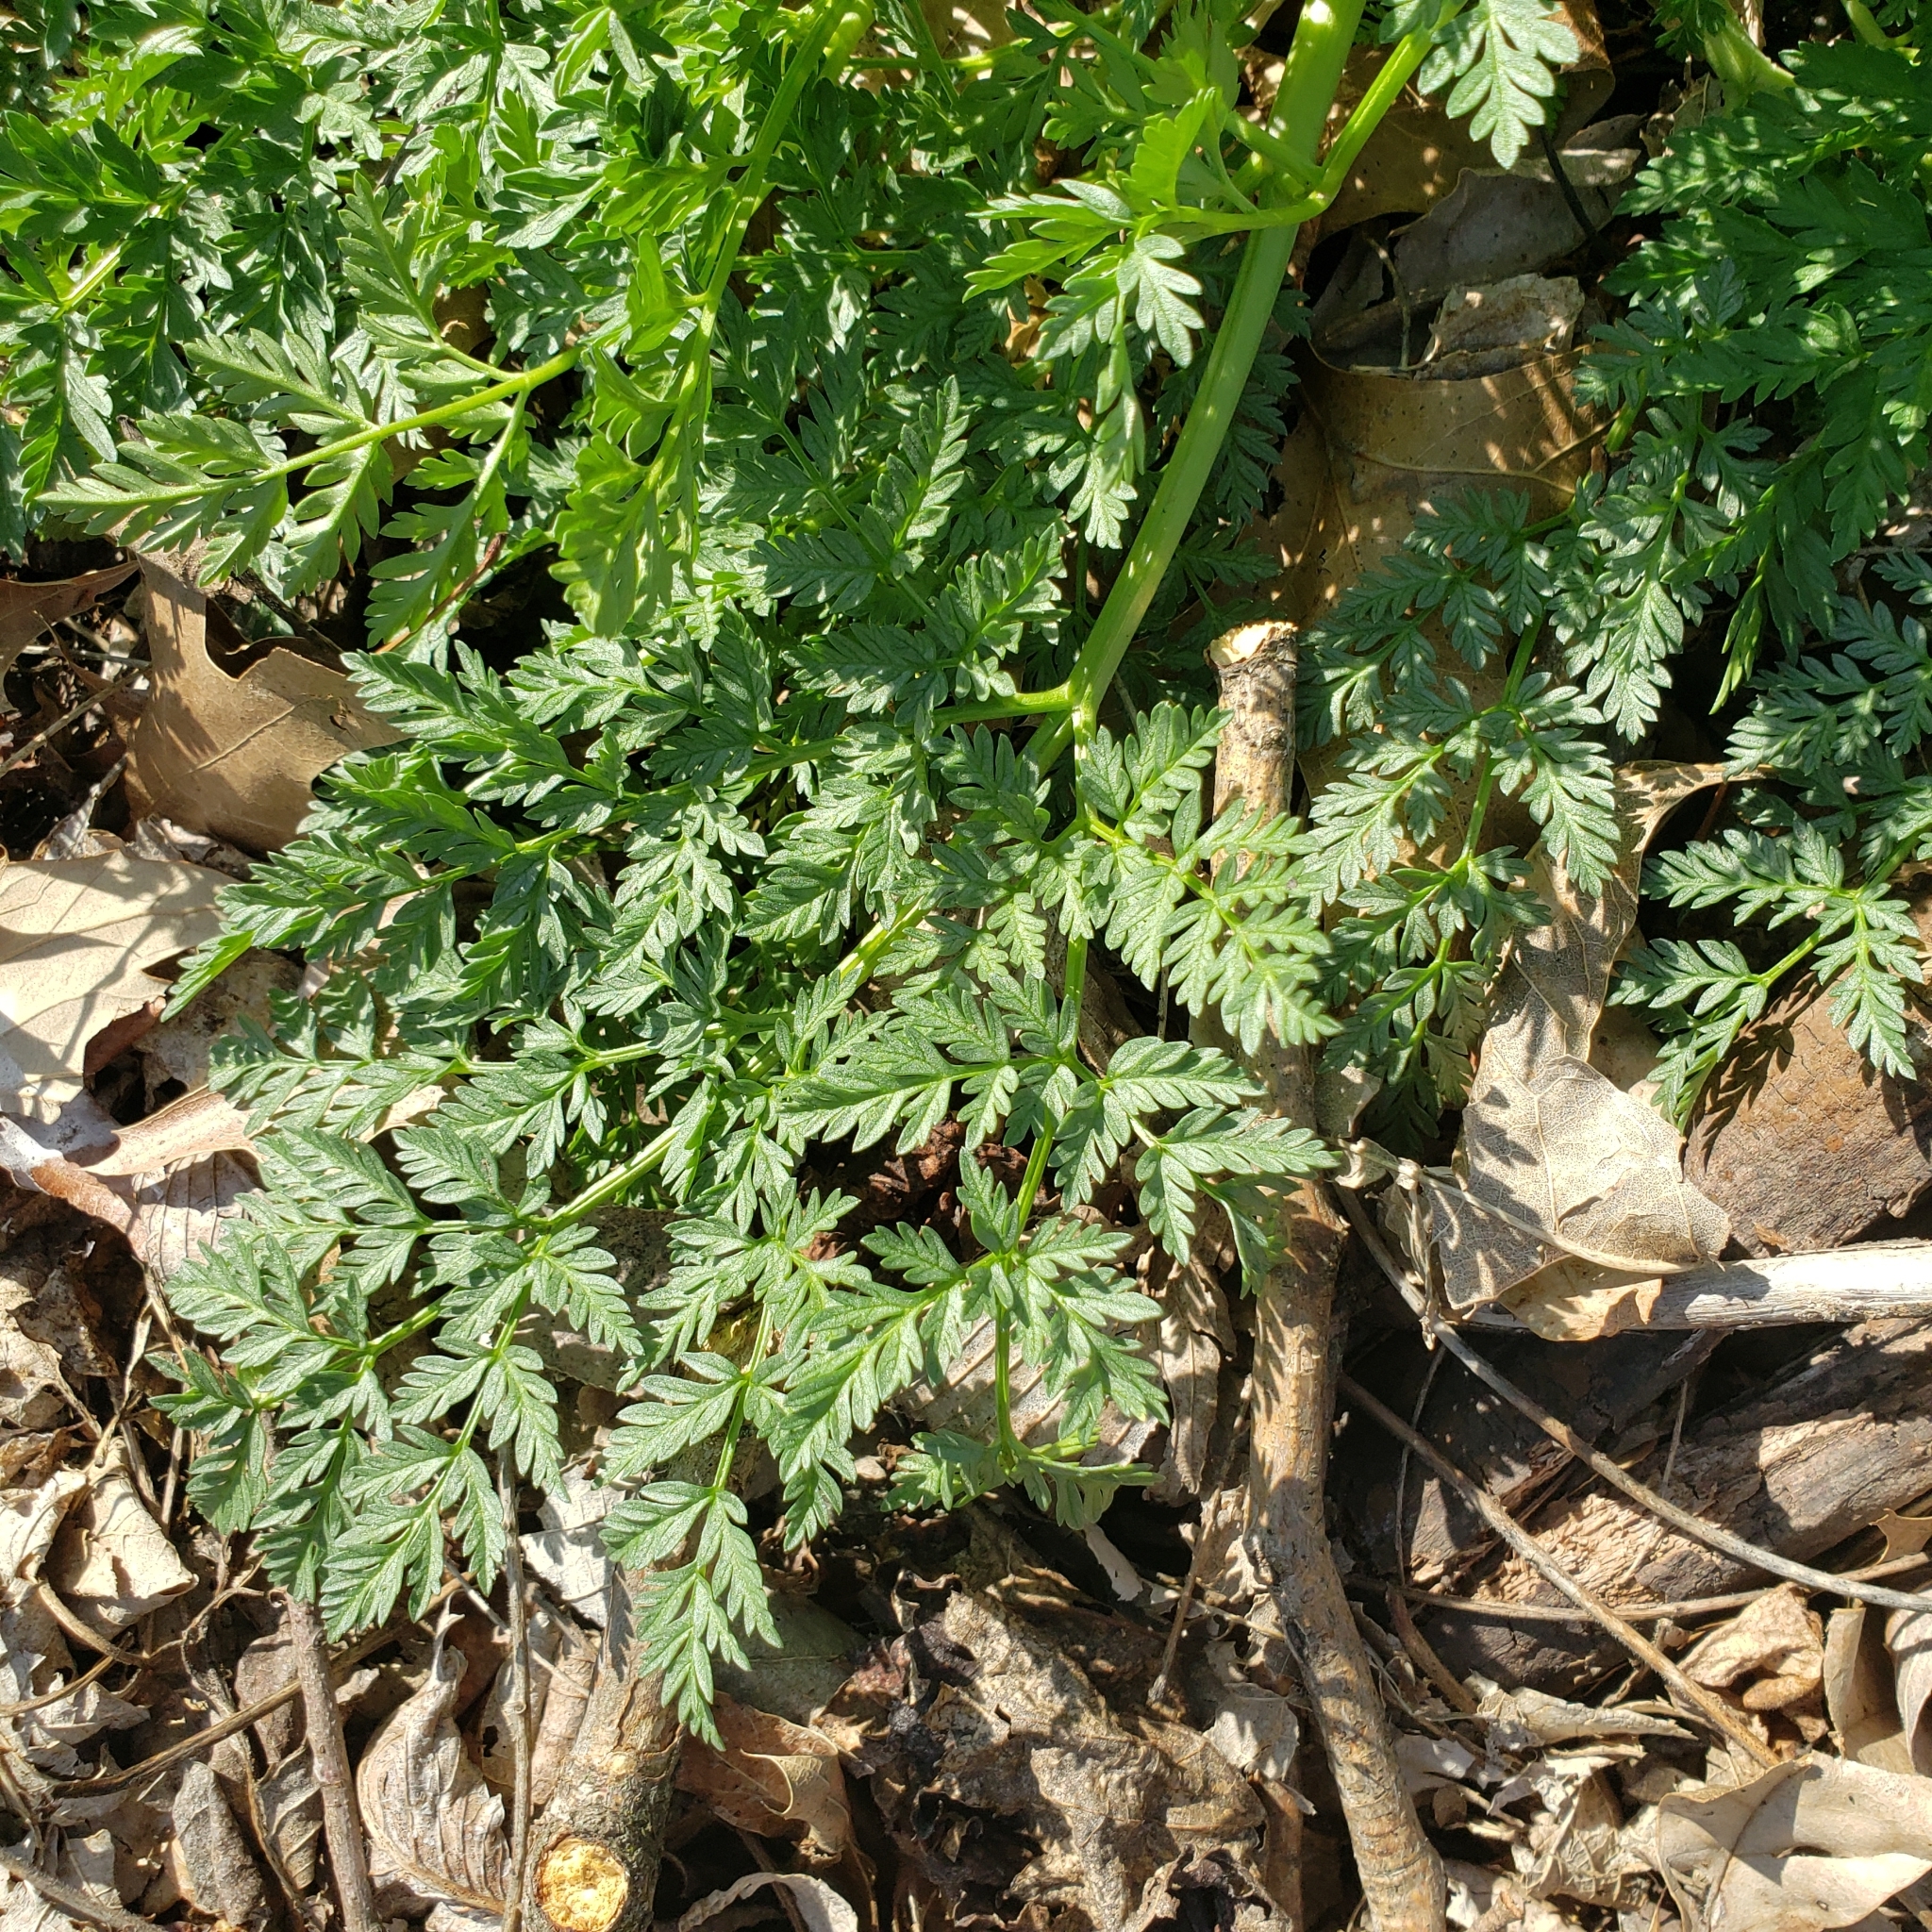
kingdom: Plantae
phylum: Tracheophyta
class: Magnoliopsida
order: Apiales
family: Apiaceae
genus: Conium
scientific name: Conium maculatum
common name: Hemlock
